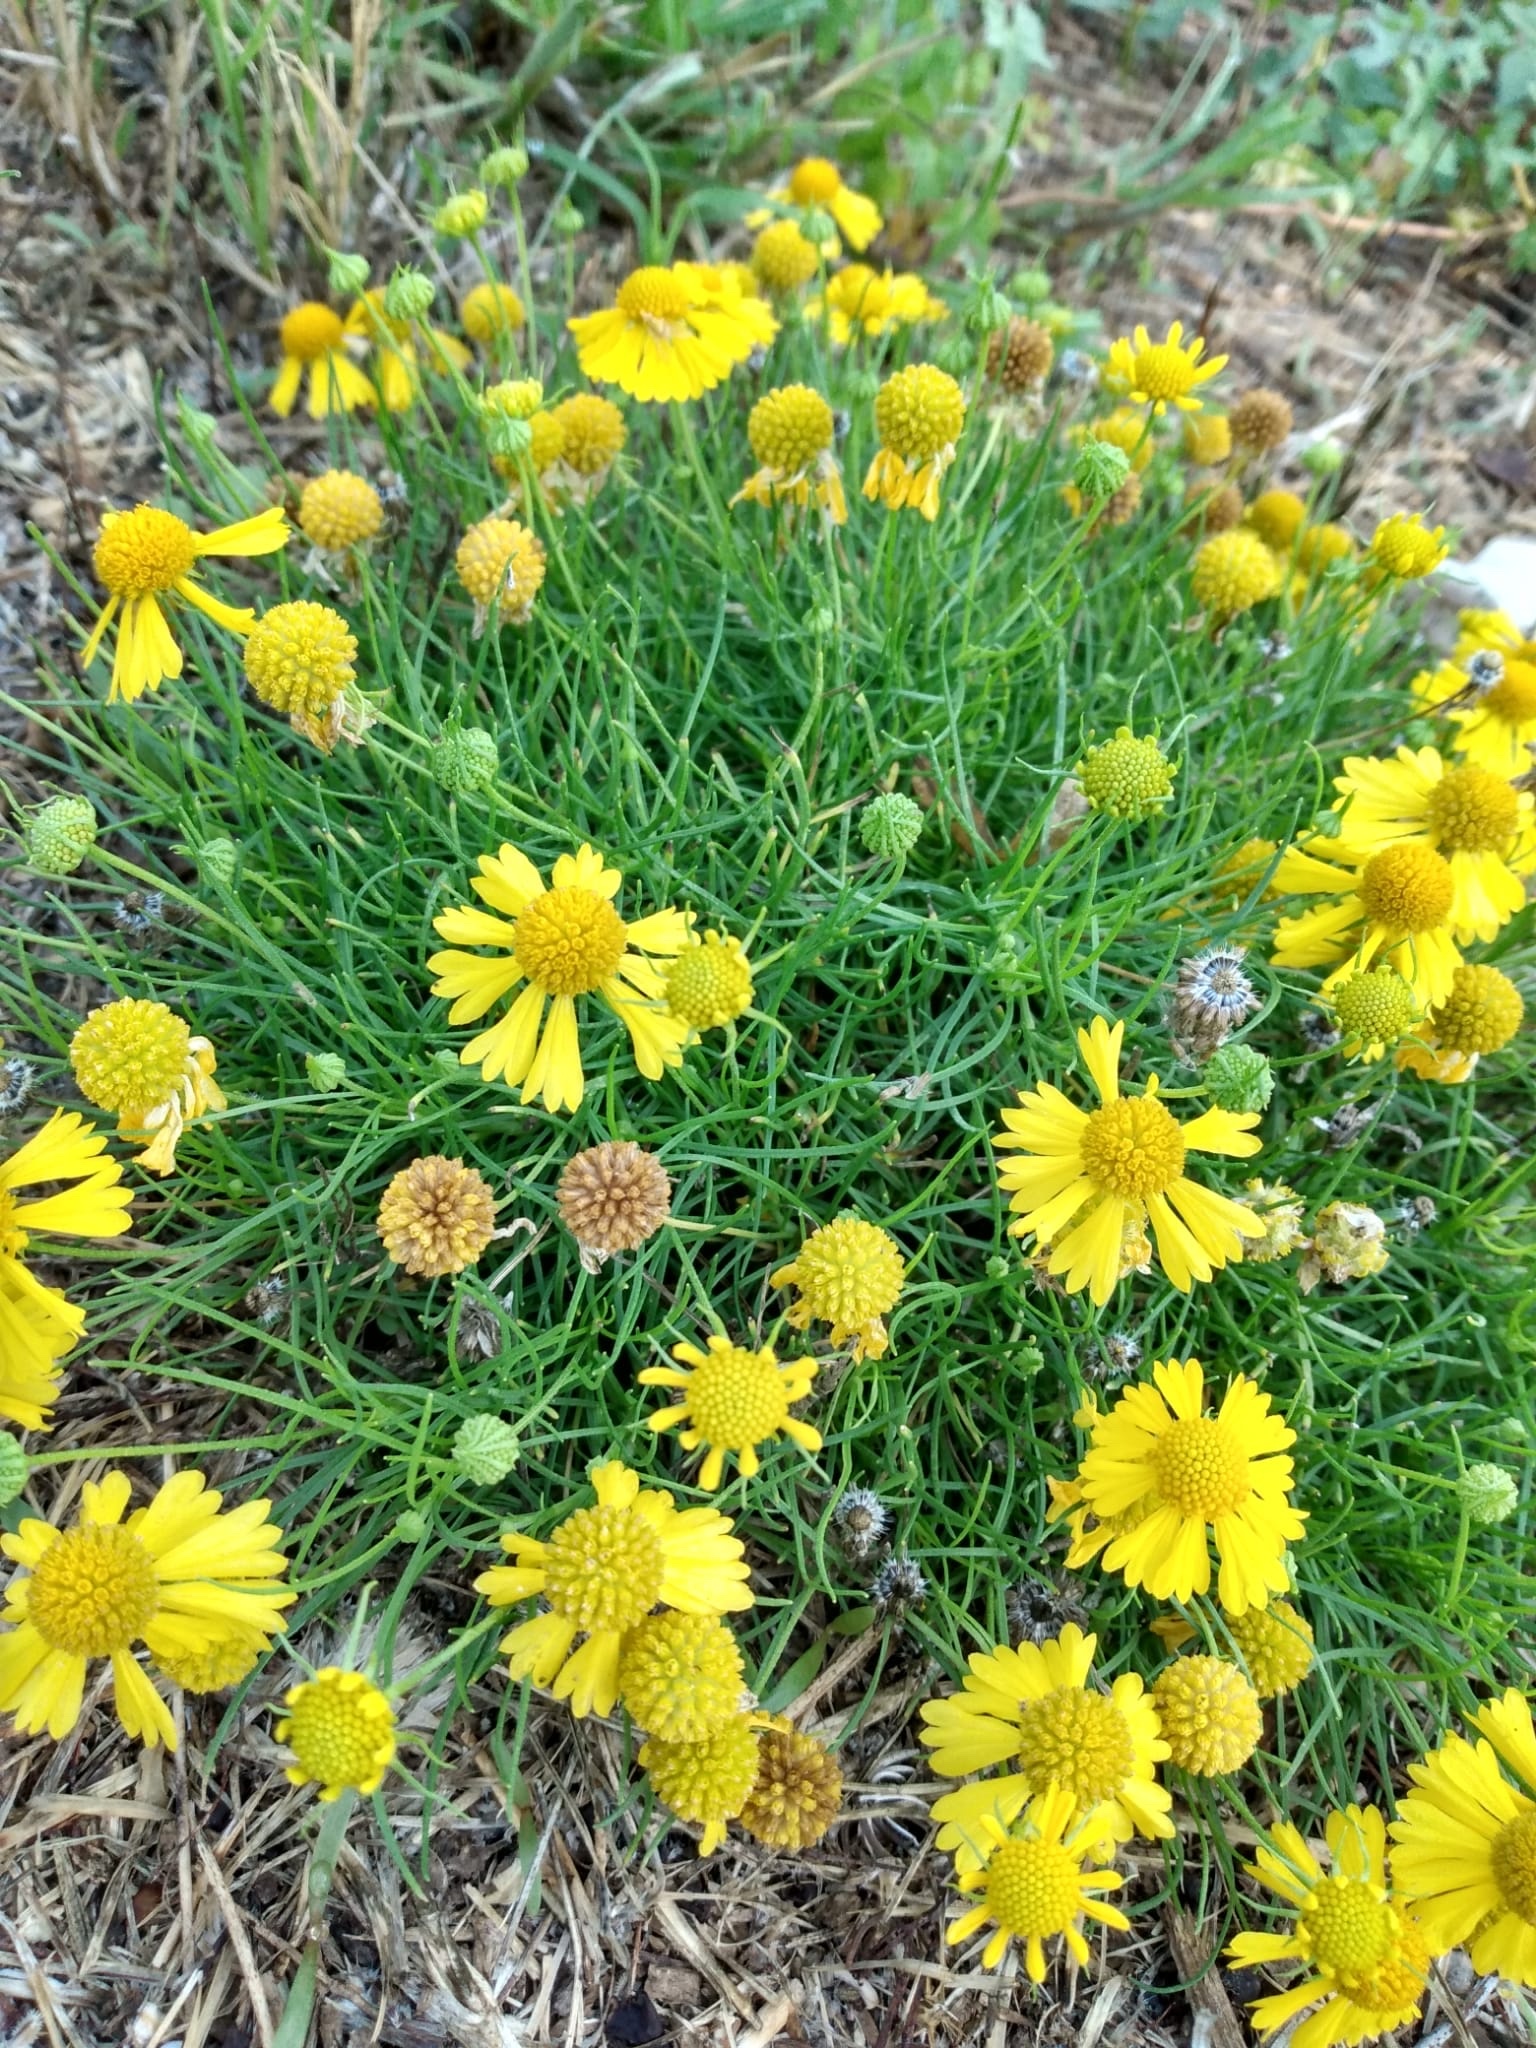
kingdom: Plantae
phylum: Tracheophyta
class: Magnoliopsida
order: Asterales
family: Asteraceae
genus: Helenium
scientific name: Helenium amarum
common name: Bitter sneezeweed
